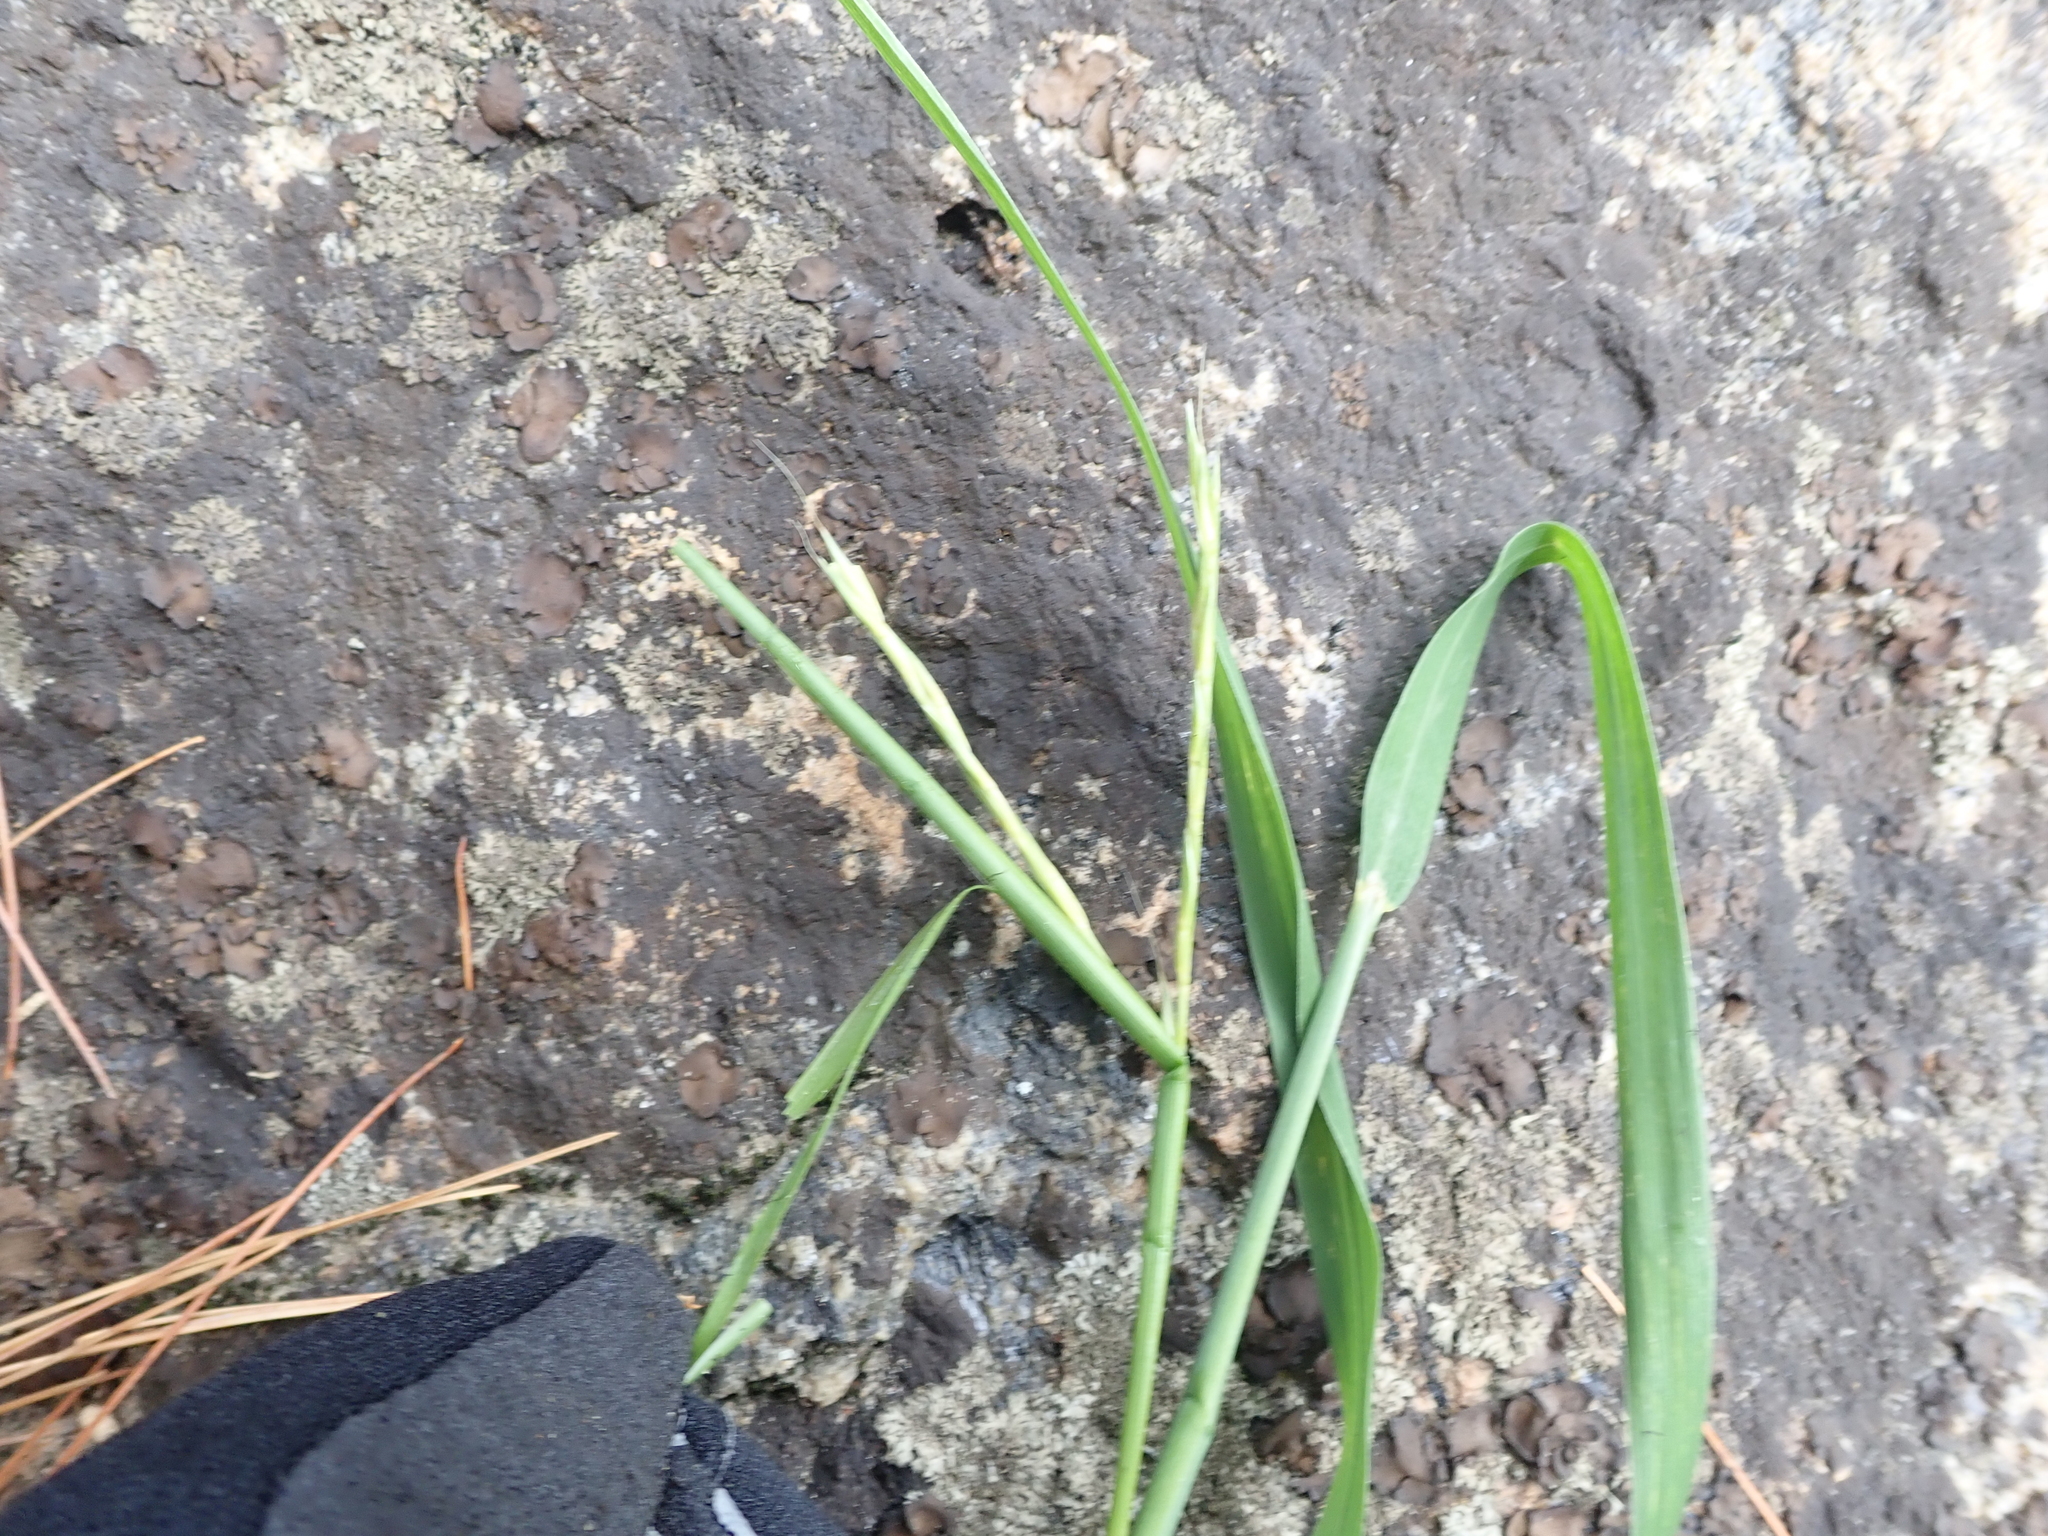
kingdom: Plantae
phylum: Tracheophyta
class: Liliopsida
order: Poales
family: Poaceae
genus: Andropogon
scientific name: Andropogon gerardi
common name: Big bluestem
